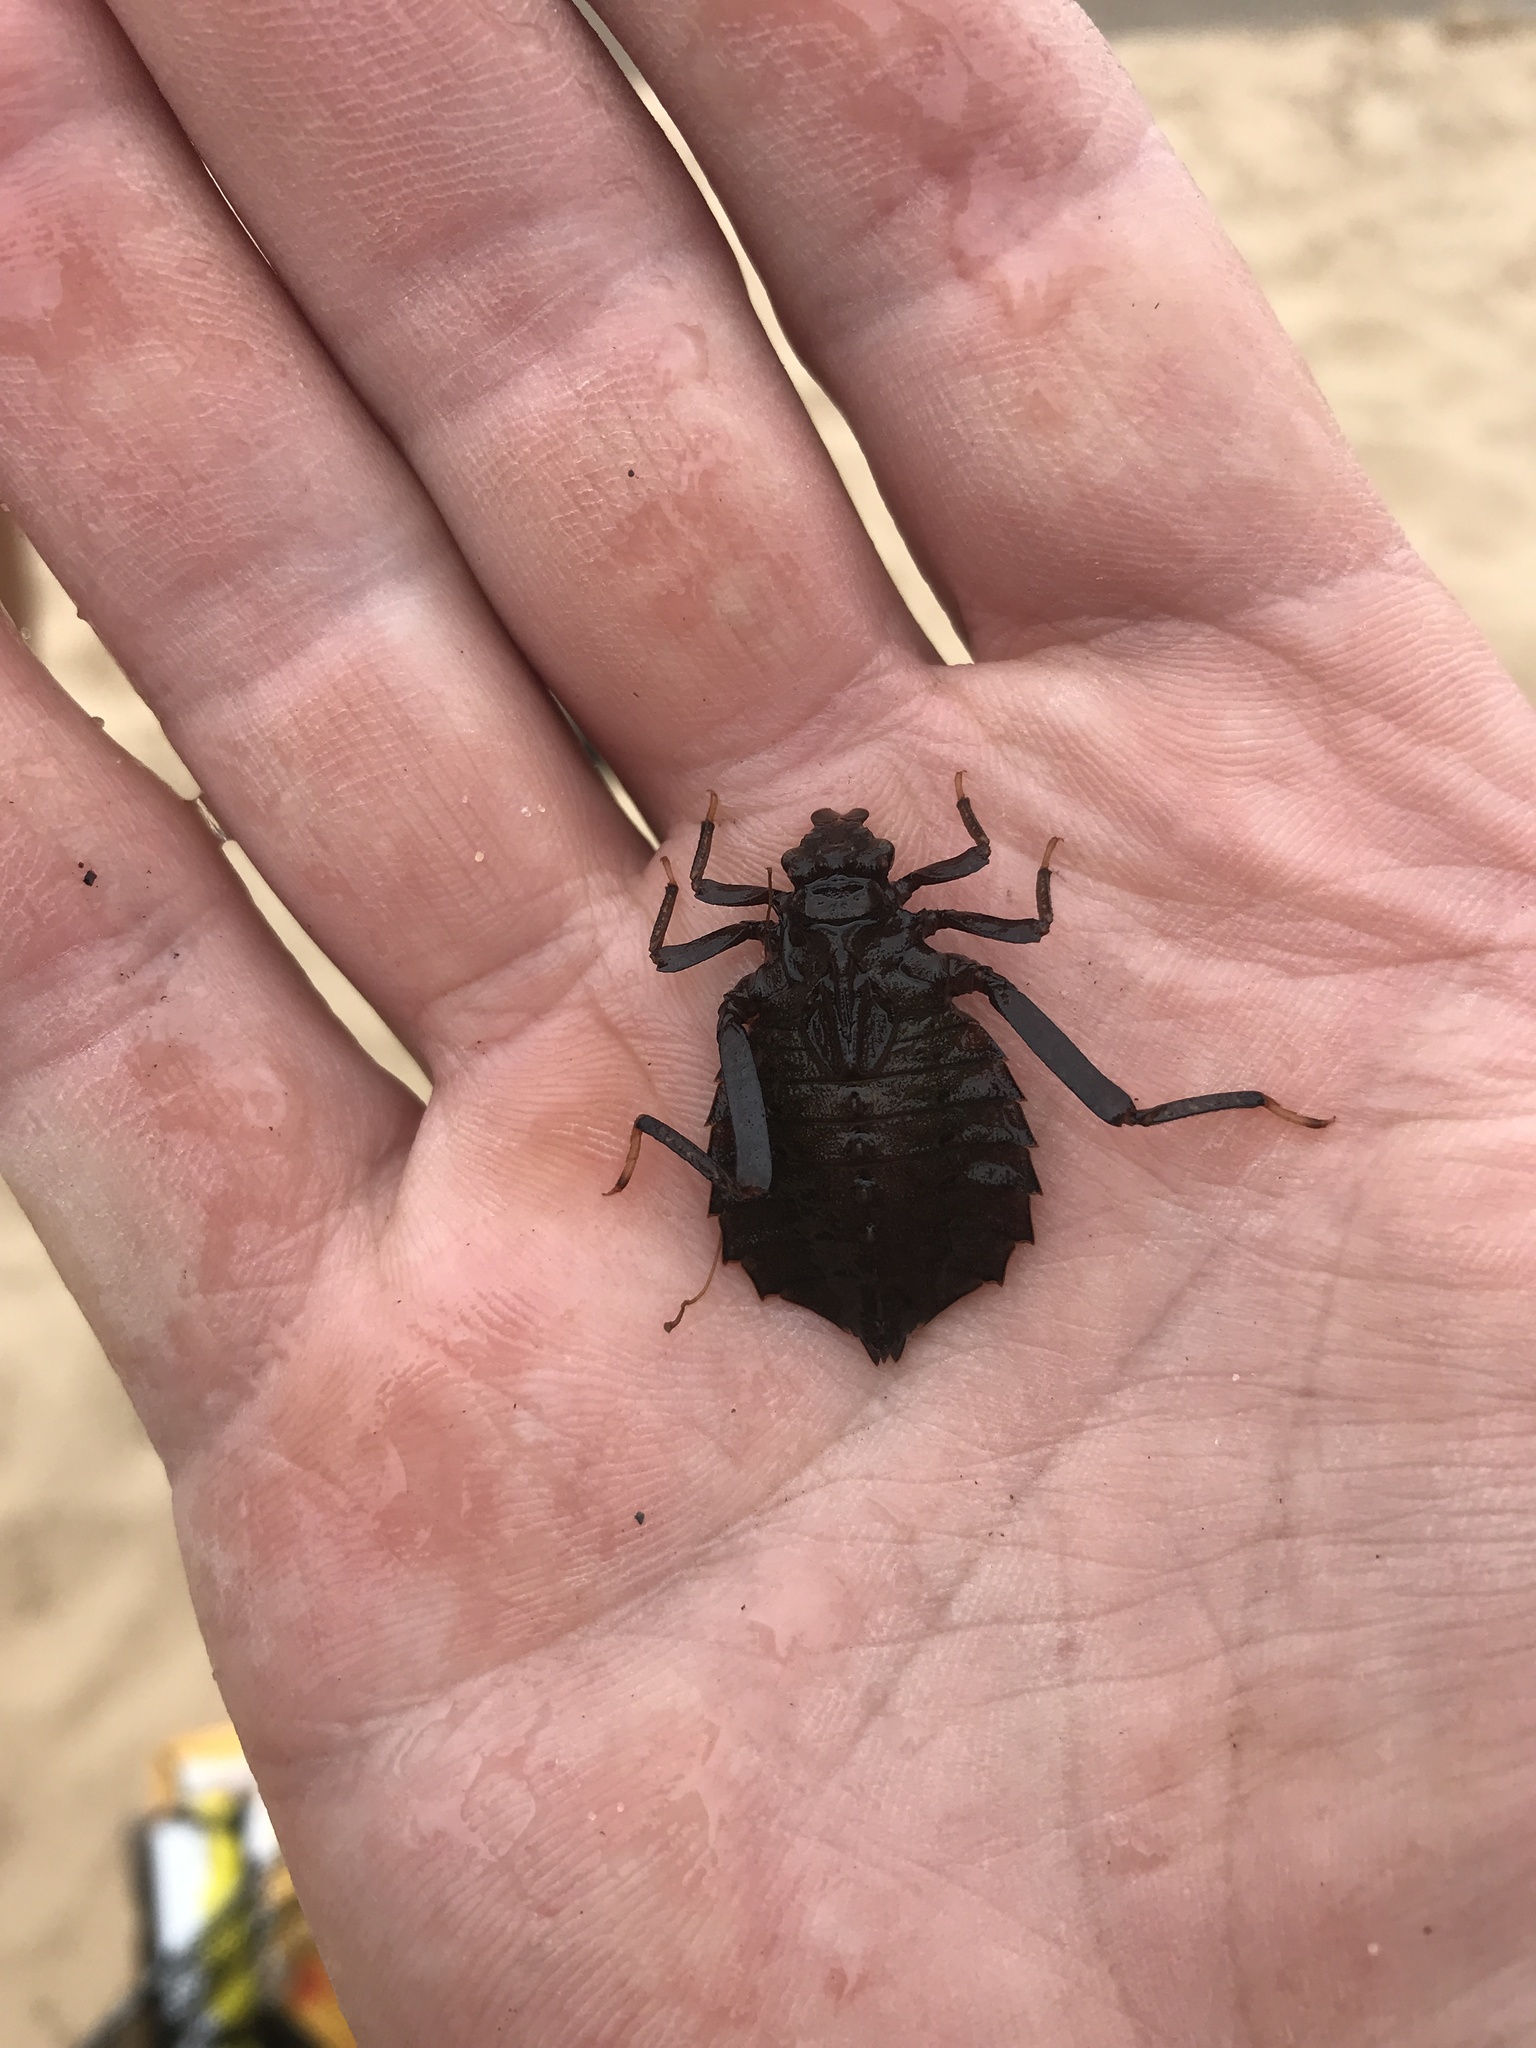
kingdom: Animalia
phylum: Arthropoda
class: Insecta
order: Odonata
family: Gomphidae
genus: Hagenius
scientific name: Hagenius brevistylus
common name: Dragonhunter
